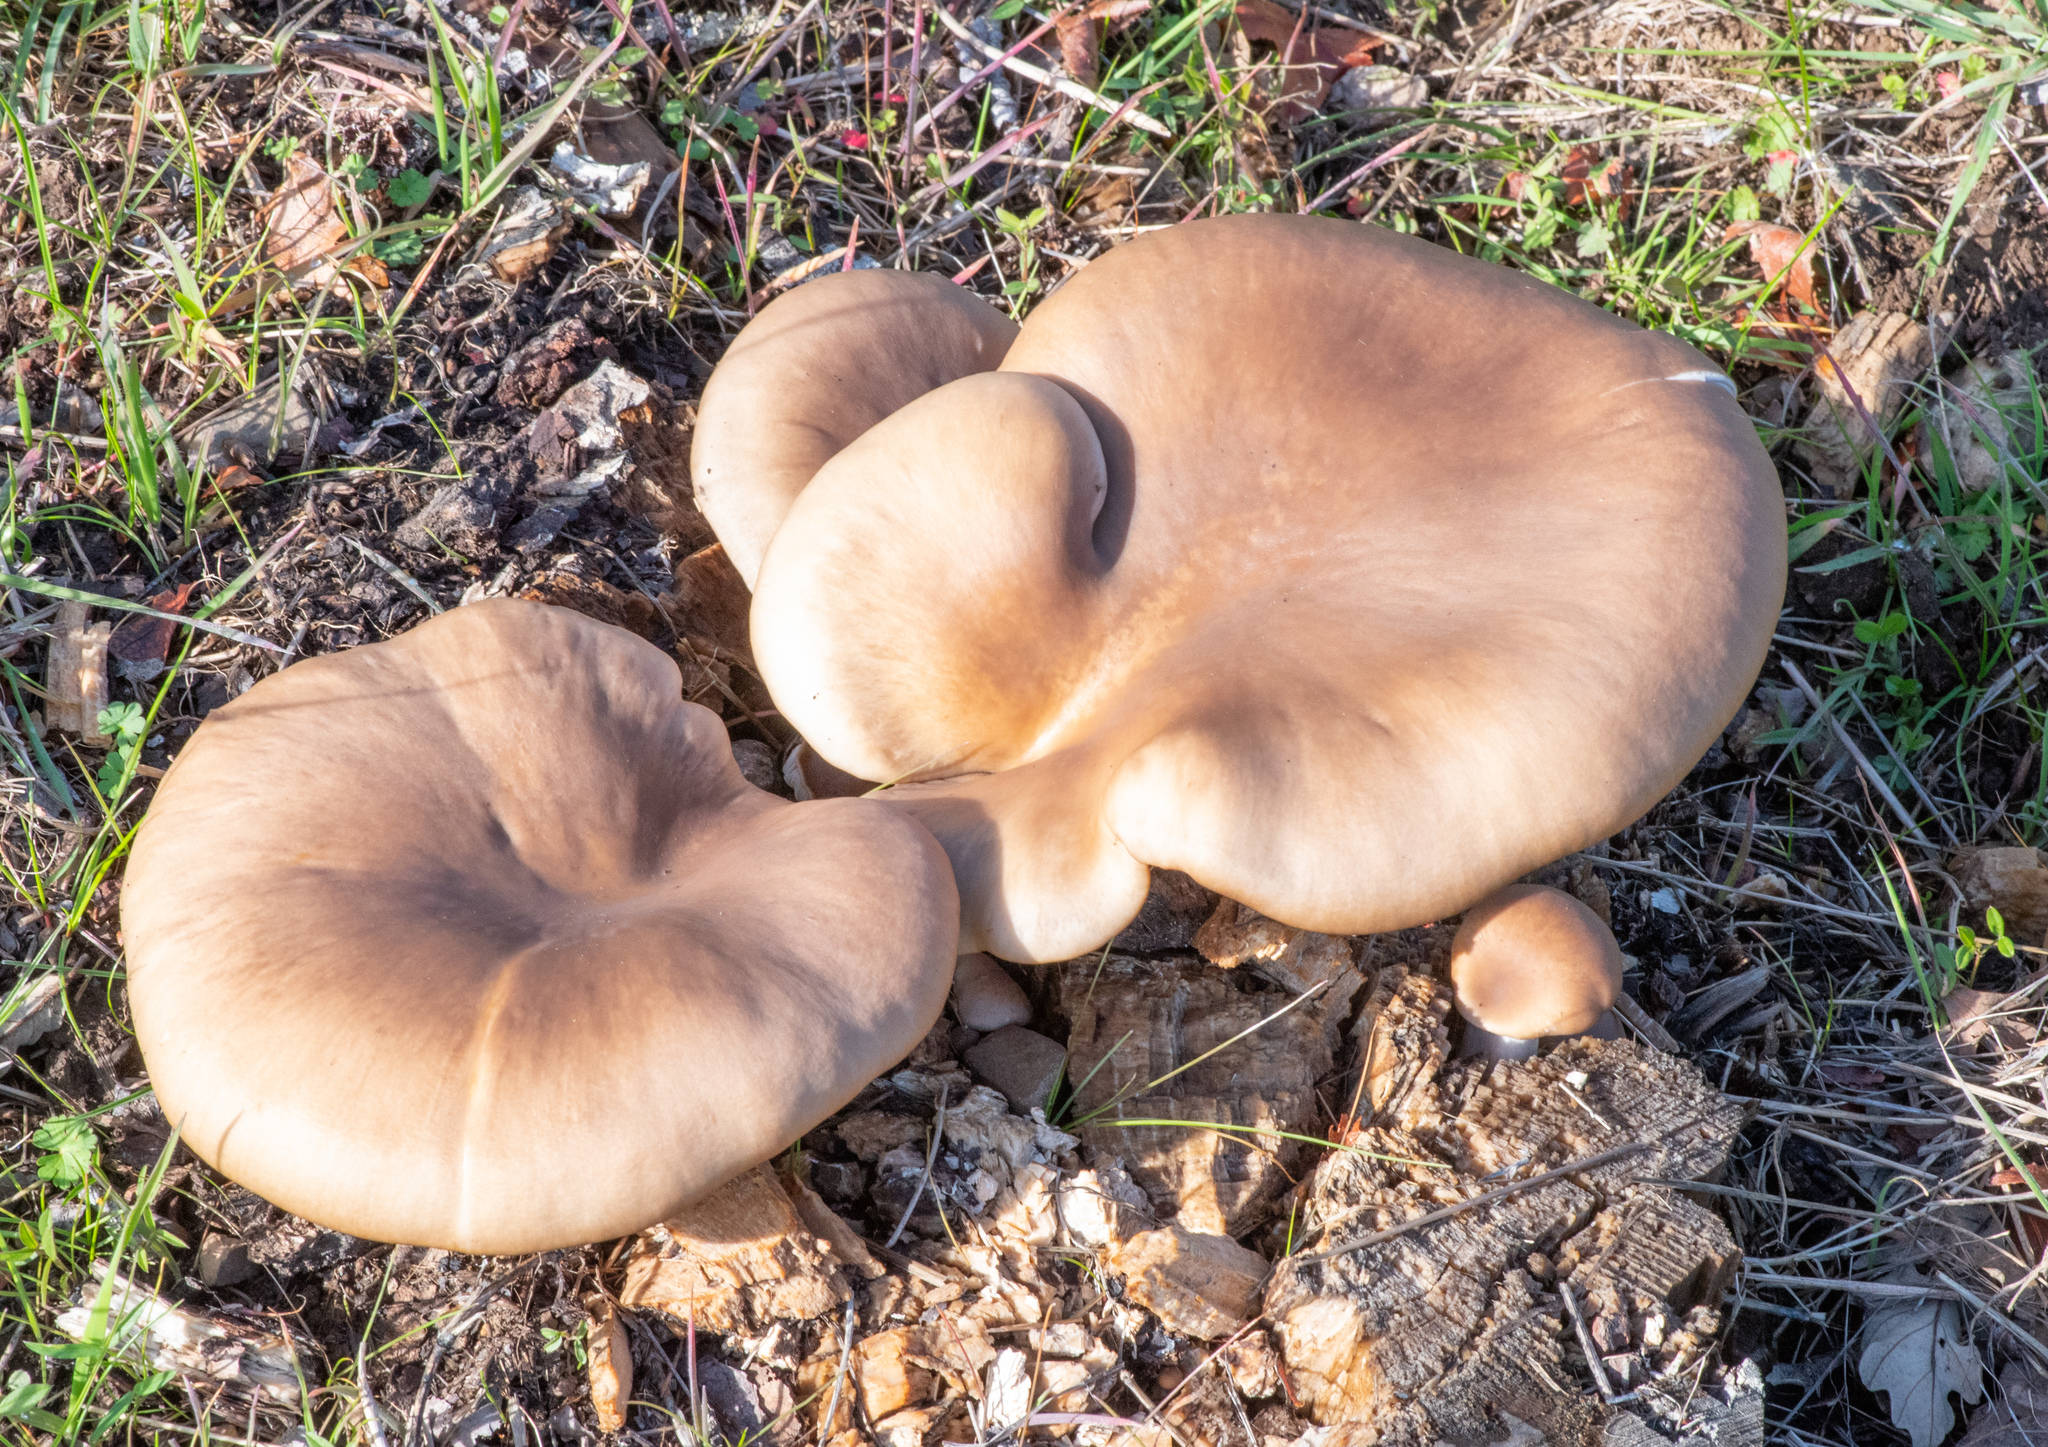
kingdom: Fungi
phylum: Basidiomycota
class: Agaricomycetes
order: Agaricales
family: Pleurotaceae
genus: Pleurotus
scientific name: Pleurotus ostreatus
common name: Oyster mushroom
